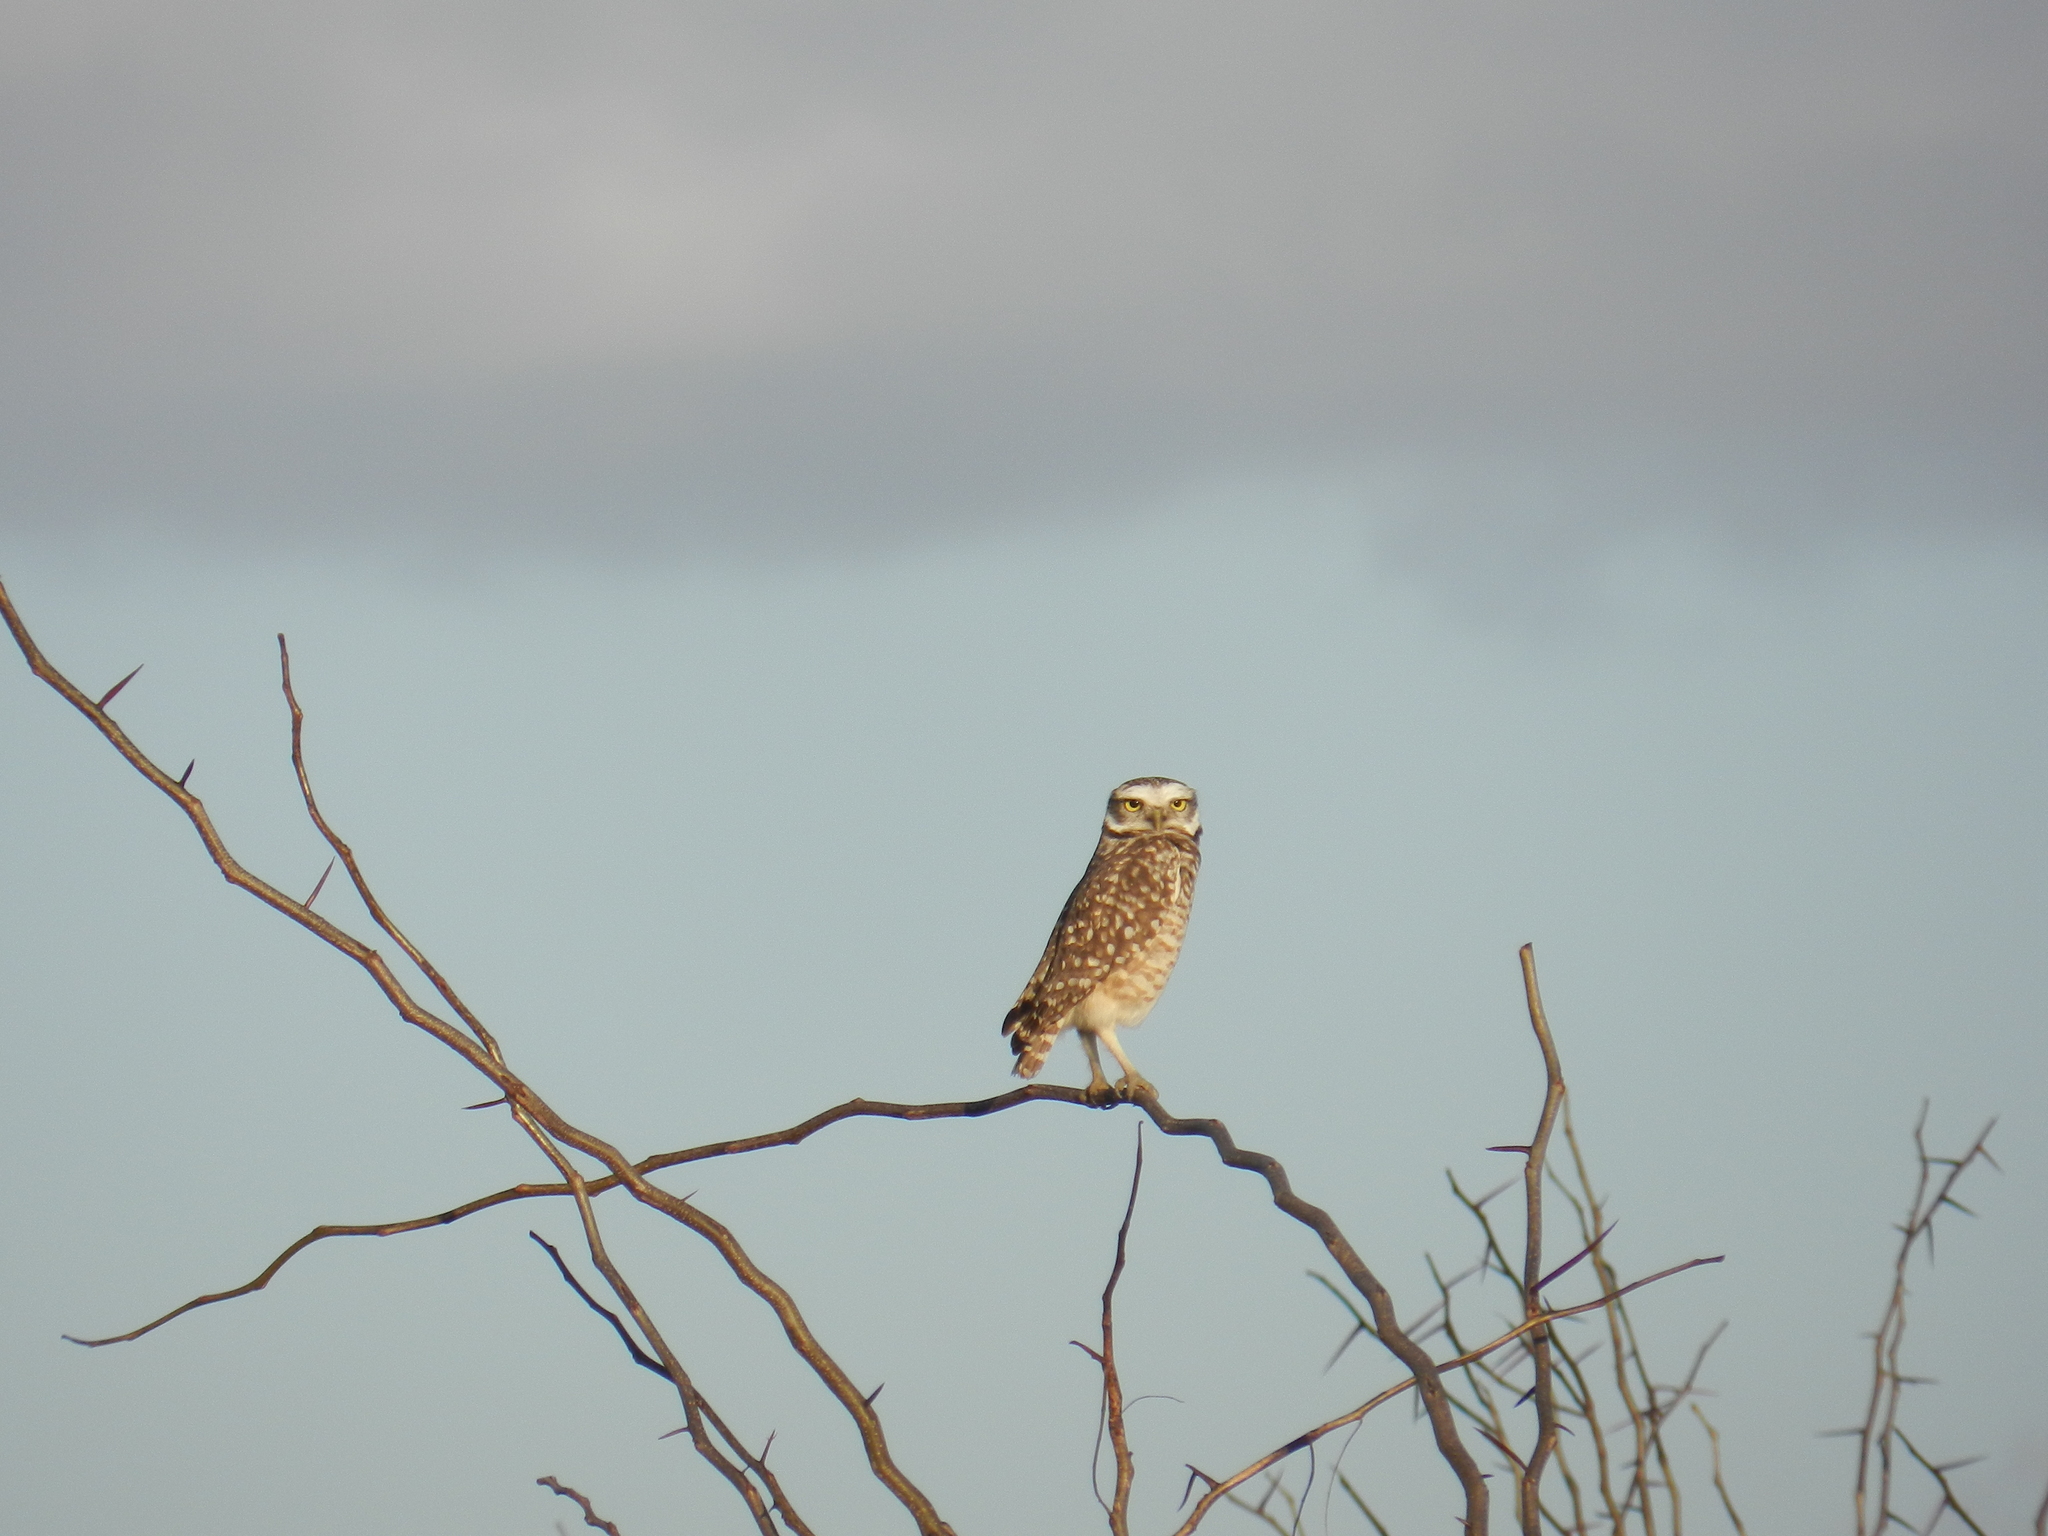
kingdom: Animalia
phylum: Chordata
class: Aves
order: Strigiformes
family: Strigidae
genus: Athene
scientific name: Athene cunicularia
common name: Burrowing owl
